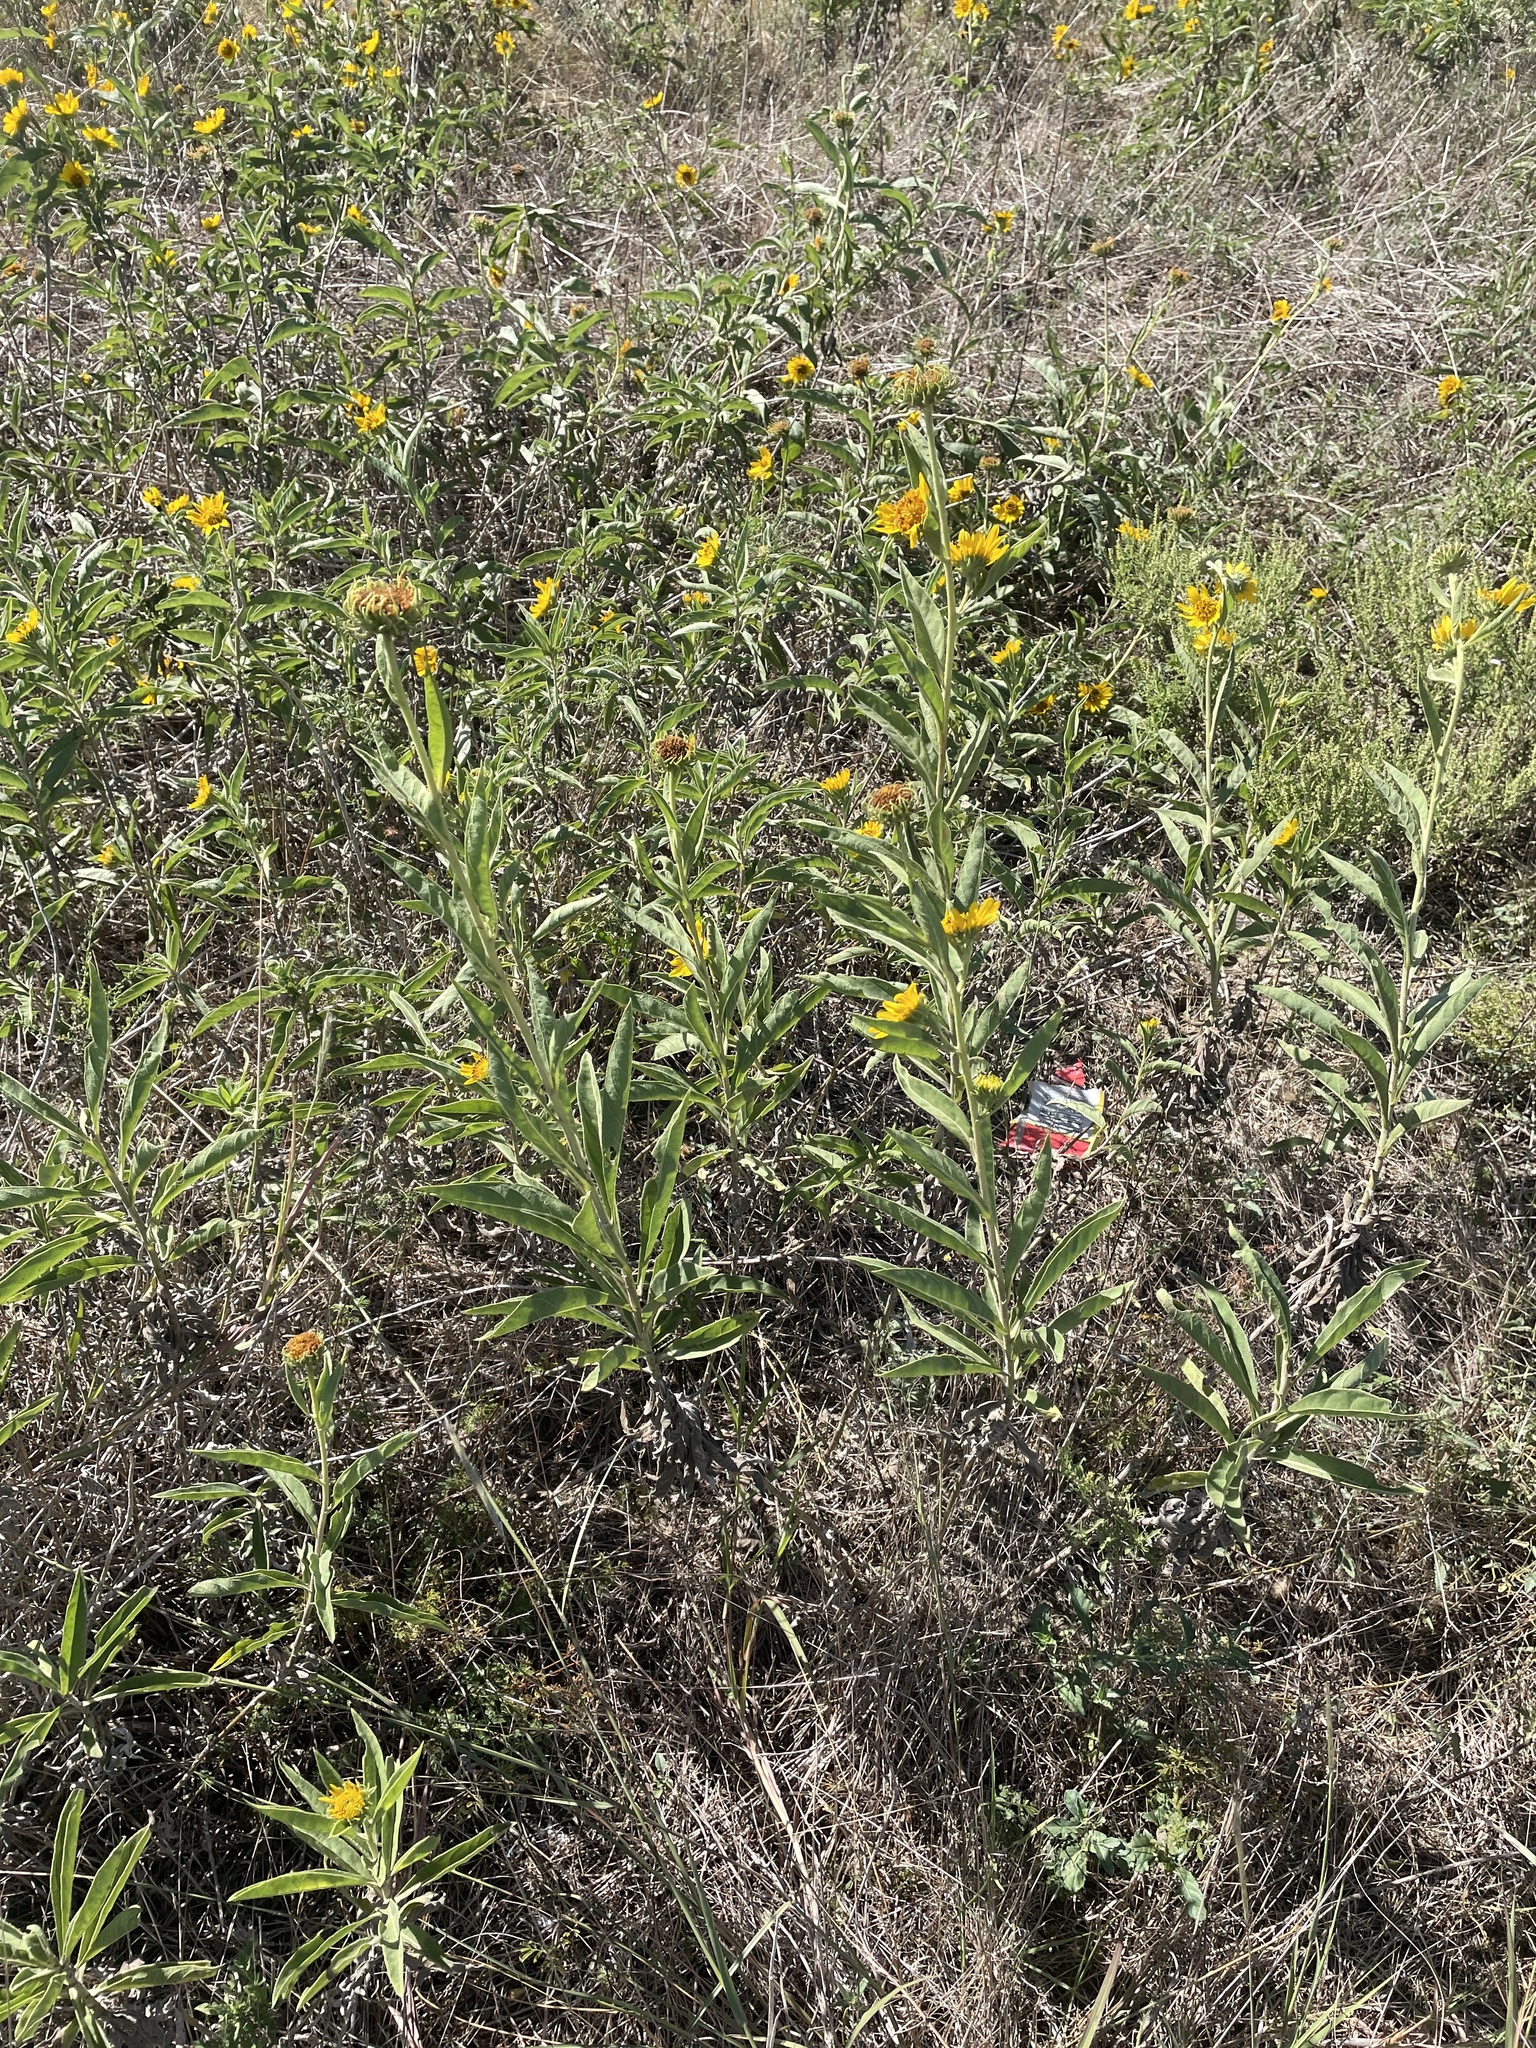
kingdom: Plantae
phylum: Tracheophyta
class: Magnoliopsida
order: Asterales
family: Asteraceae
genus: Helianthus
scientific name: Helianthus maximiliani
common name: Maximilian's sunflower
